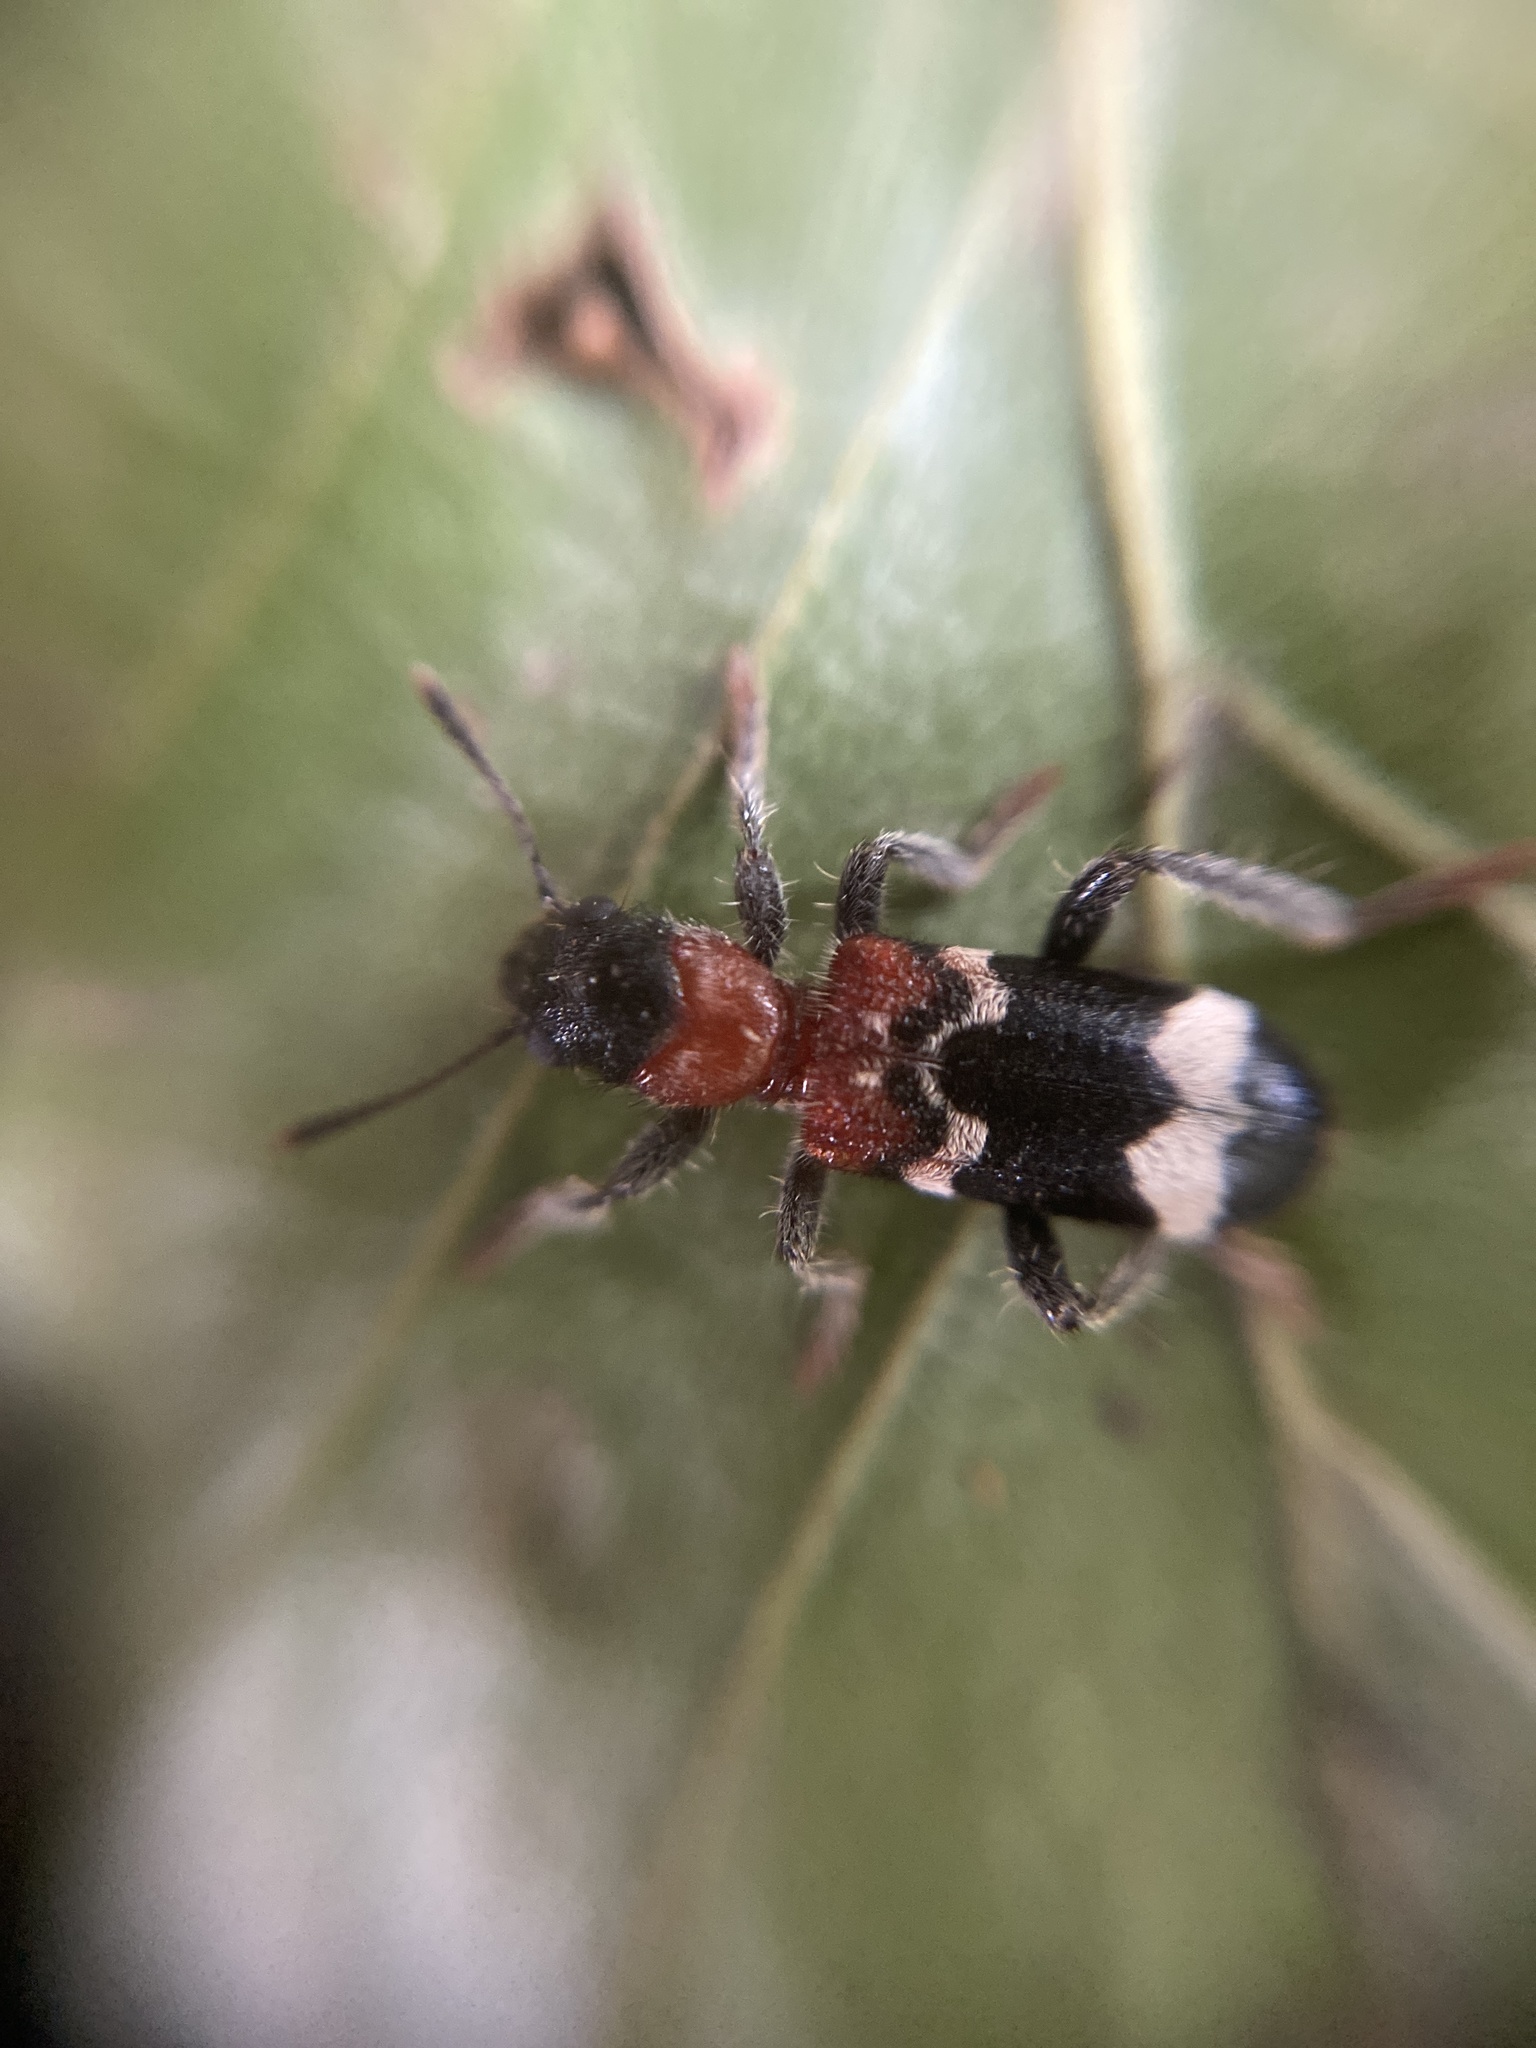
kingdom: Animalia
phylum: Arthropoda
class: Insecta
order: Coleoptera
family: Cleridae
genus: Thanasimus
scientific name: Thanasimus formicarius
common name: Ant beetle
